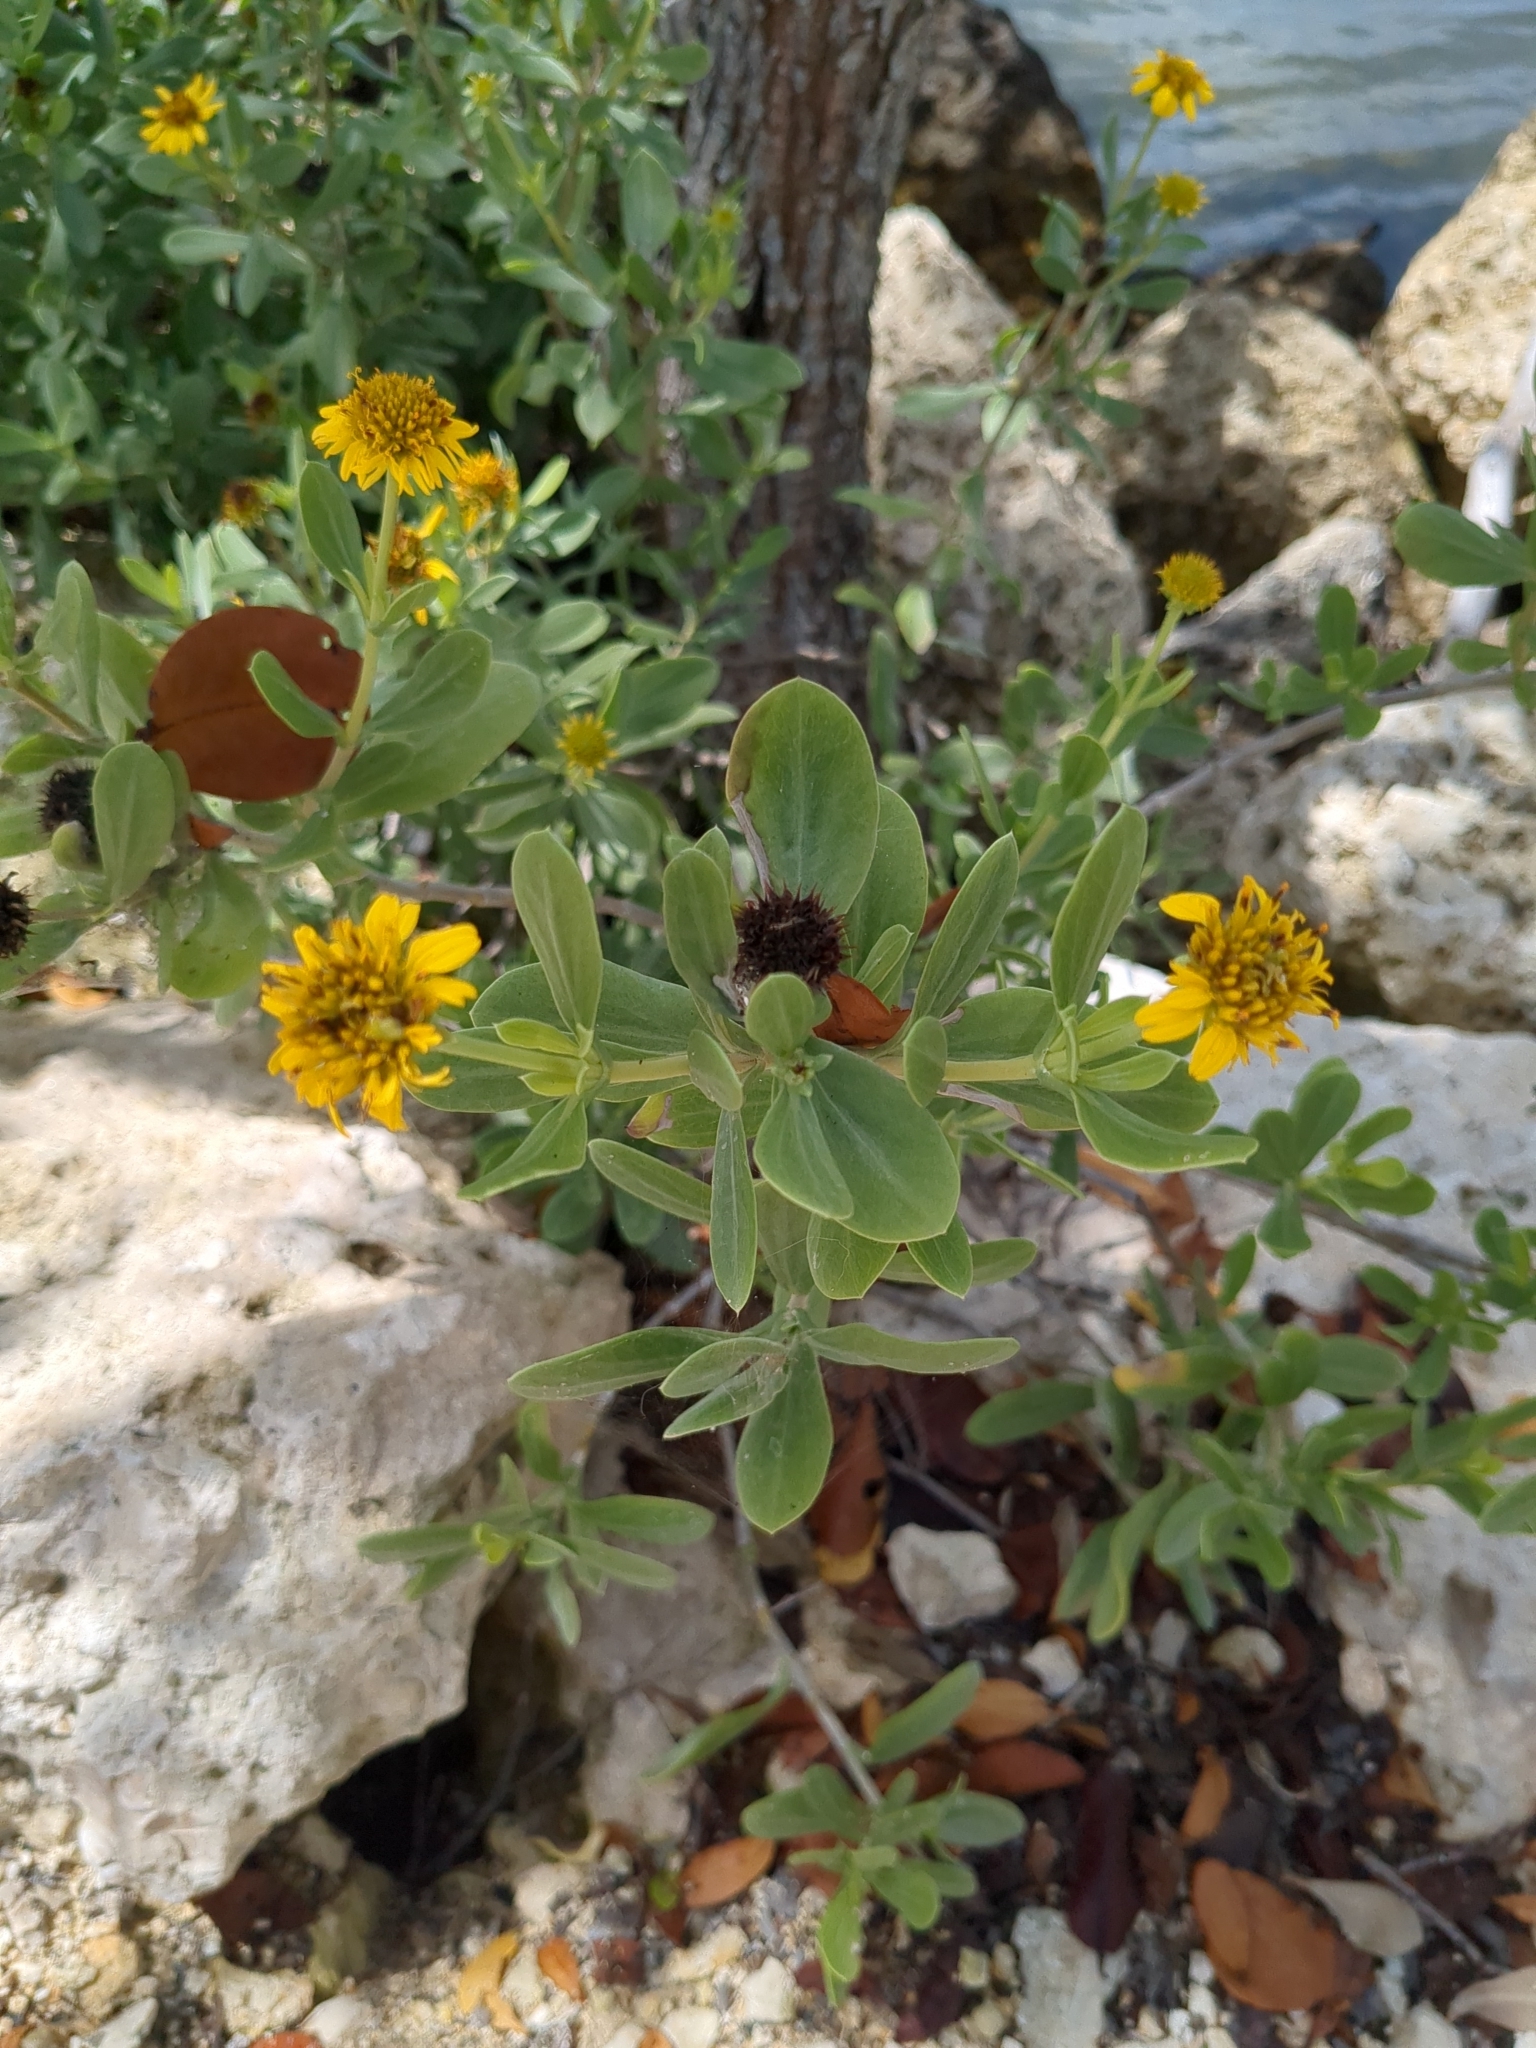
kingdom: Plantae
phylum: Tracheophyta
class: Magnoliopsida
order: Asterales
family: Asteraceae
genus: Borrichia
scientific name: Borrichia frutescens
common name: Sea oxeye
